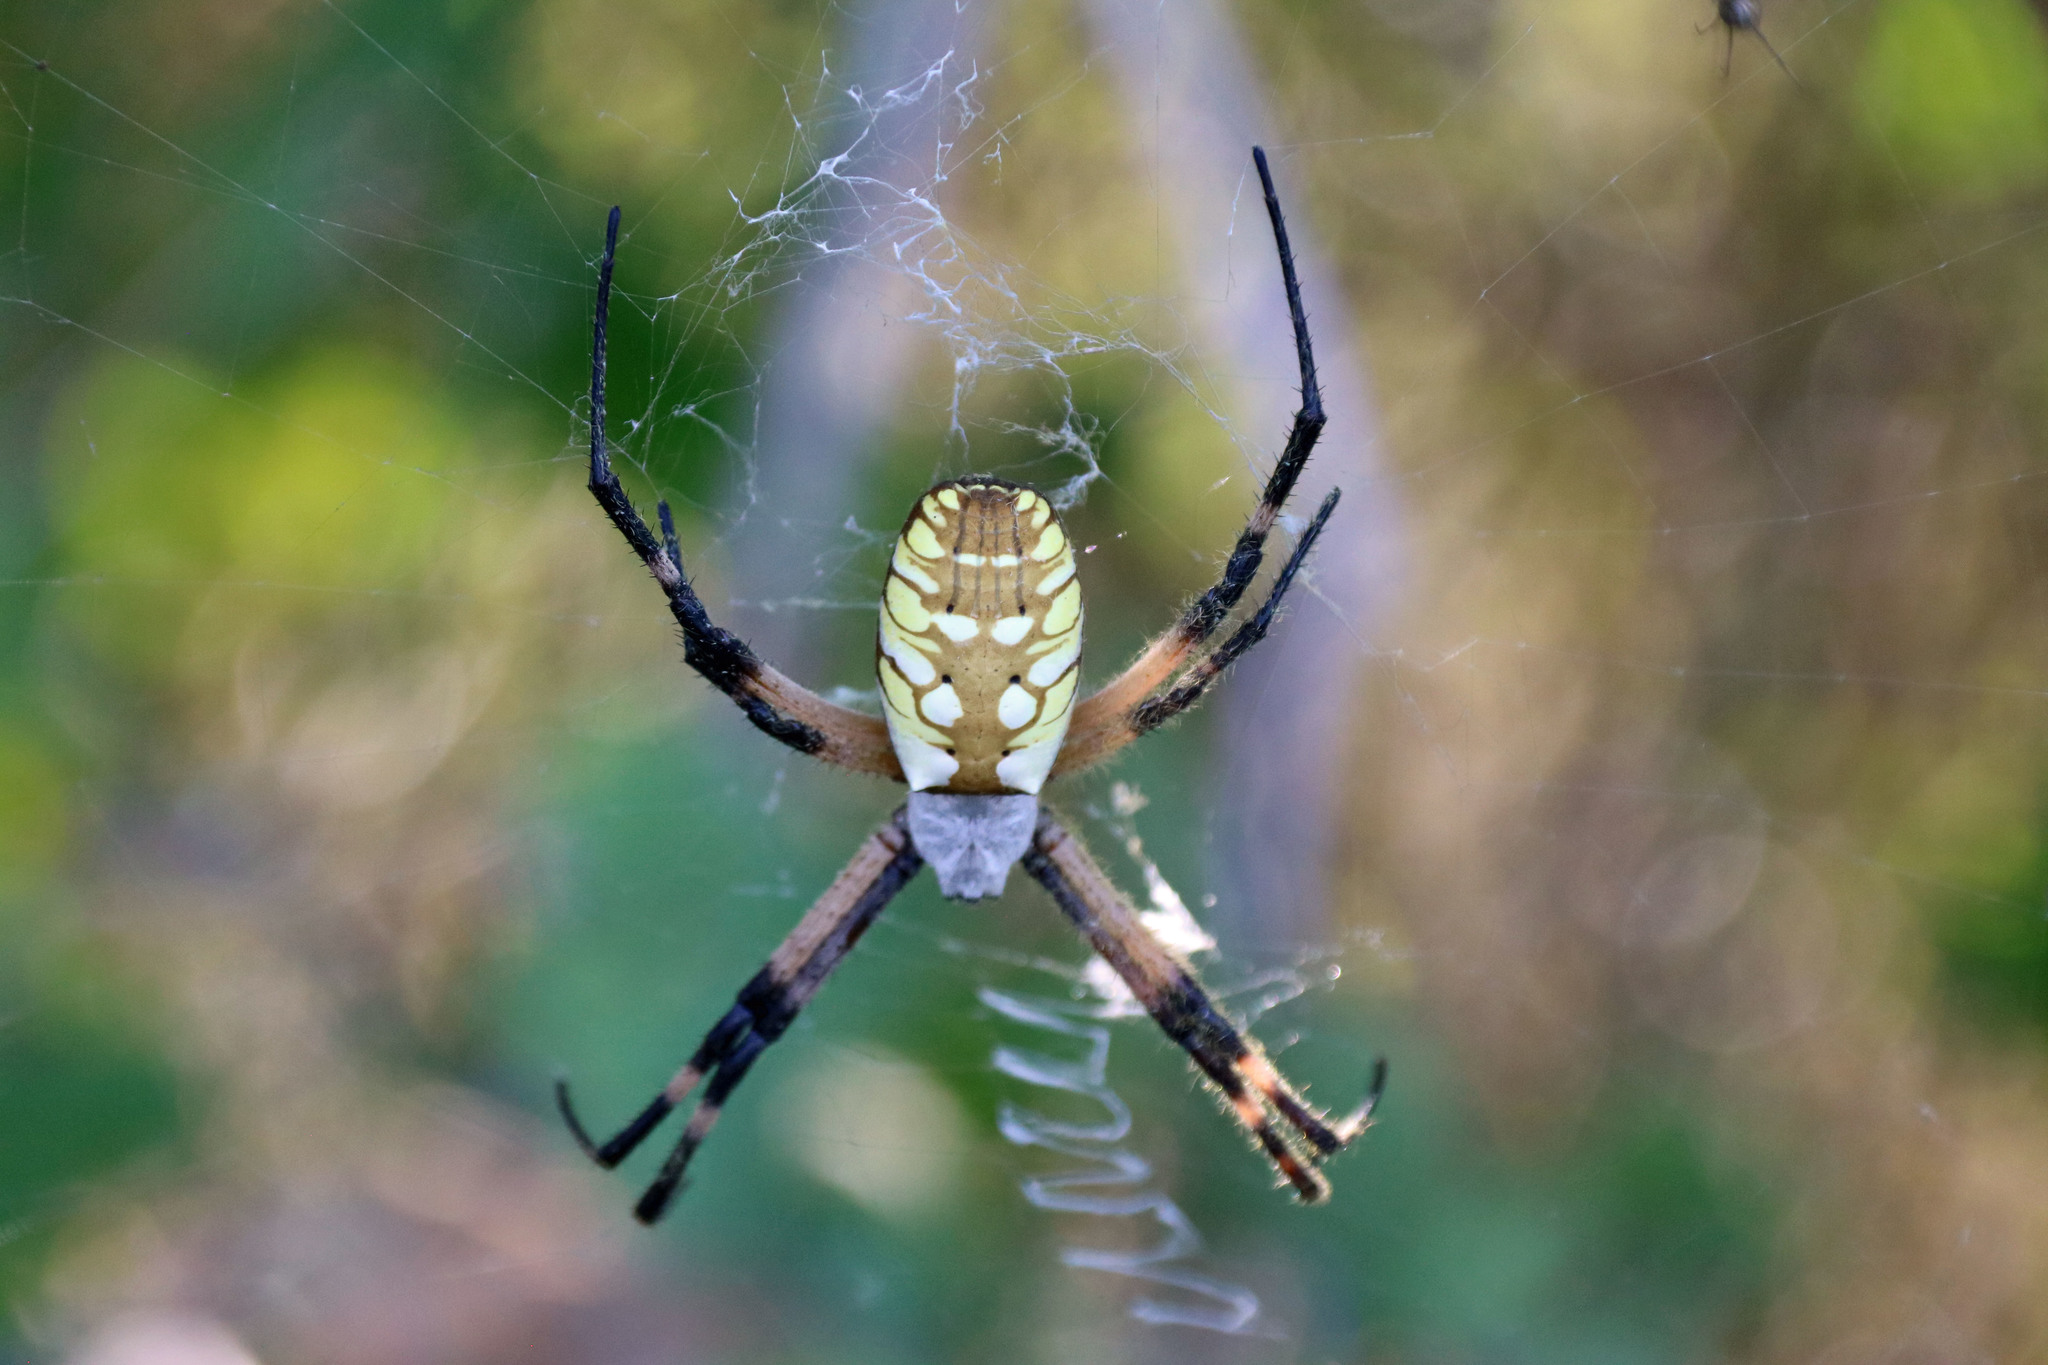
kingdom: Animalia
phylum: Arthropoda
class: Arachnida
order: Araneae
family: Araneidae
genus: Argiope
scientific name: Argiope aurantia
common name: Orb weavers
